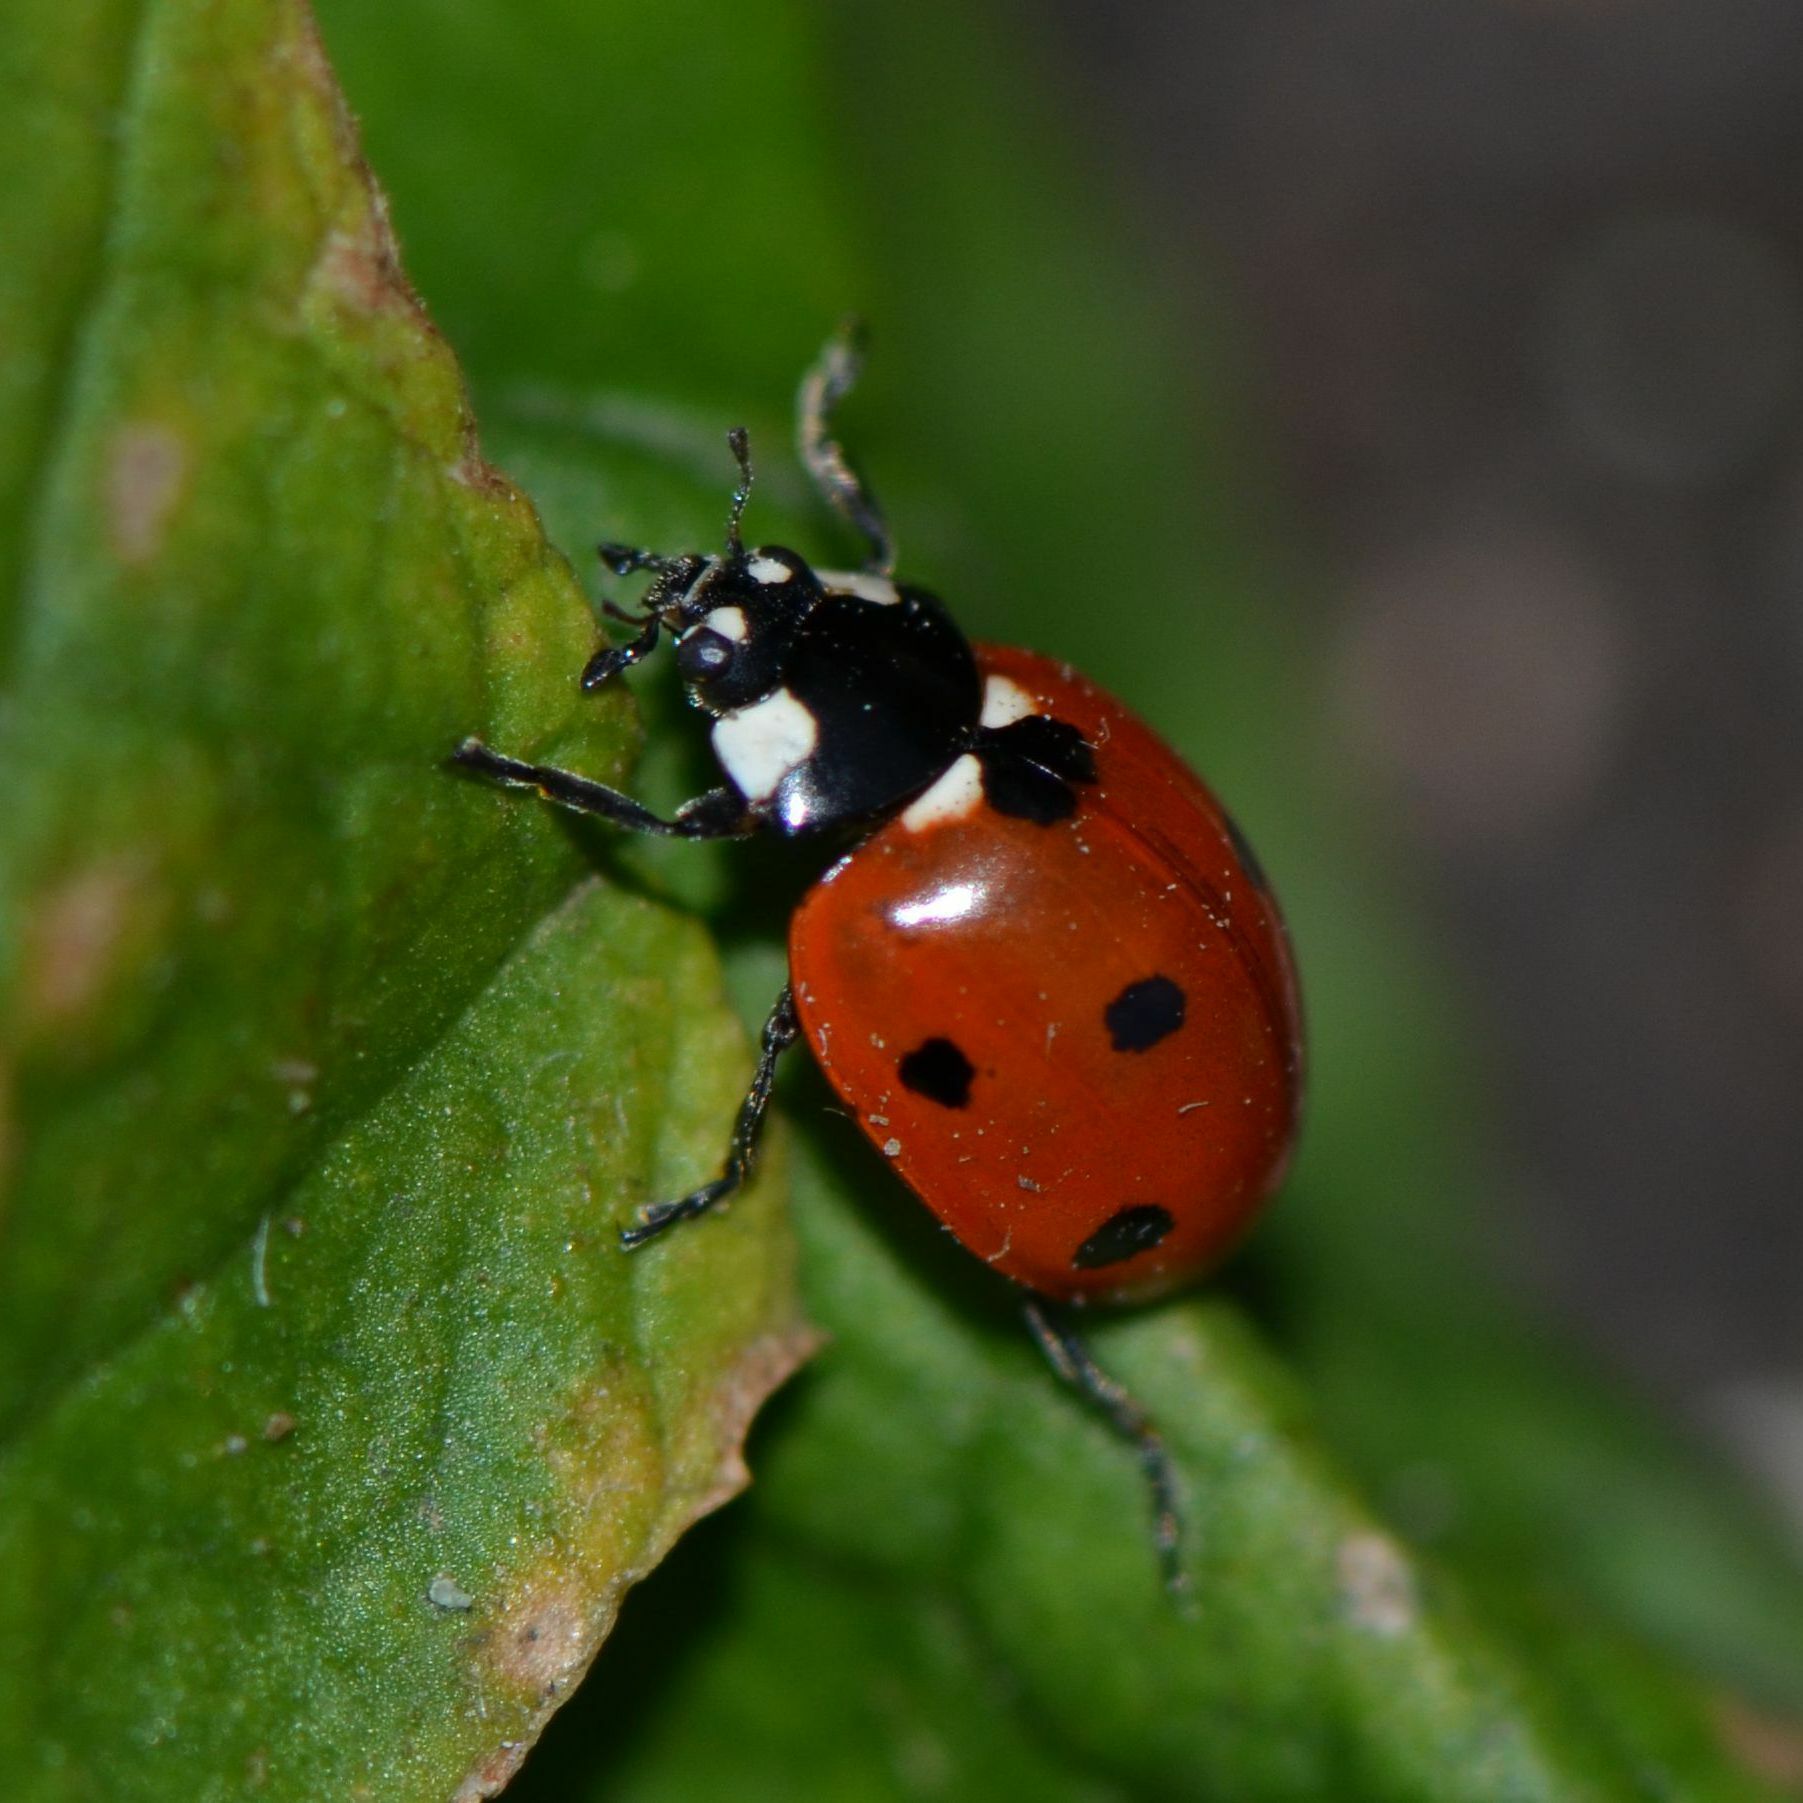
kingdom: Animalia
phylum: Arthropoda
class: Insecta
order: Coleoptera
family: Coccinellidae
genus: Coccinella
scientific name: Coccinella septempunctata
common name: Sevenspotted lady beetle
